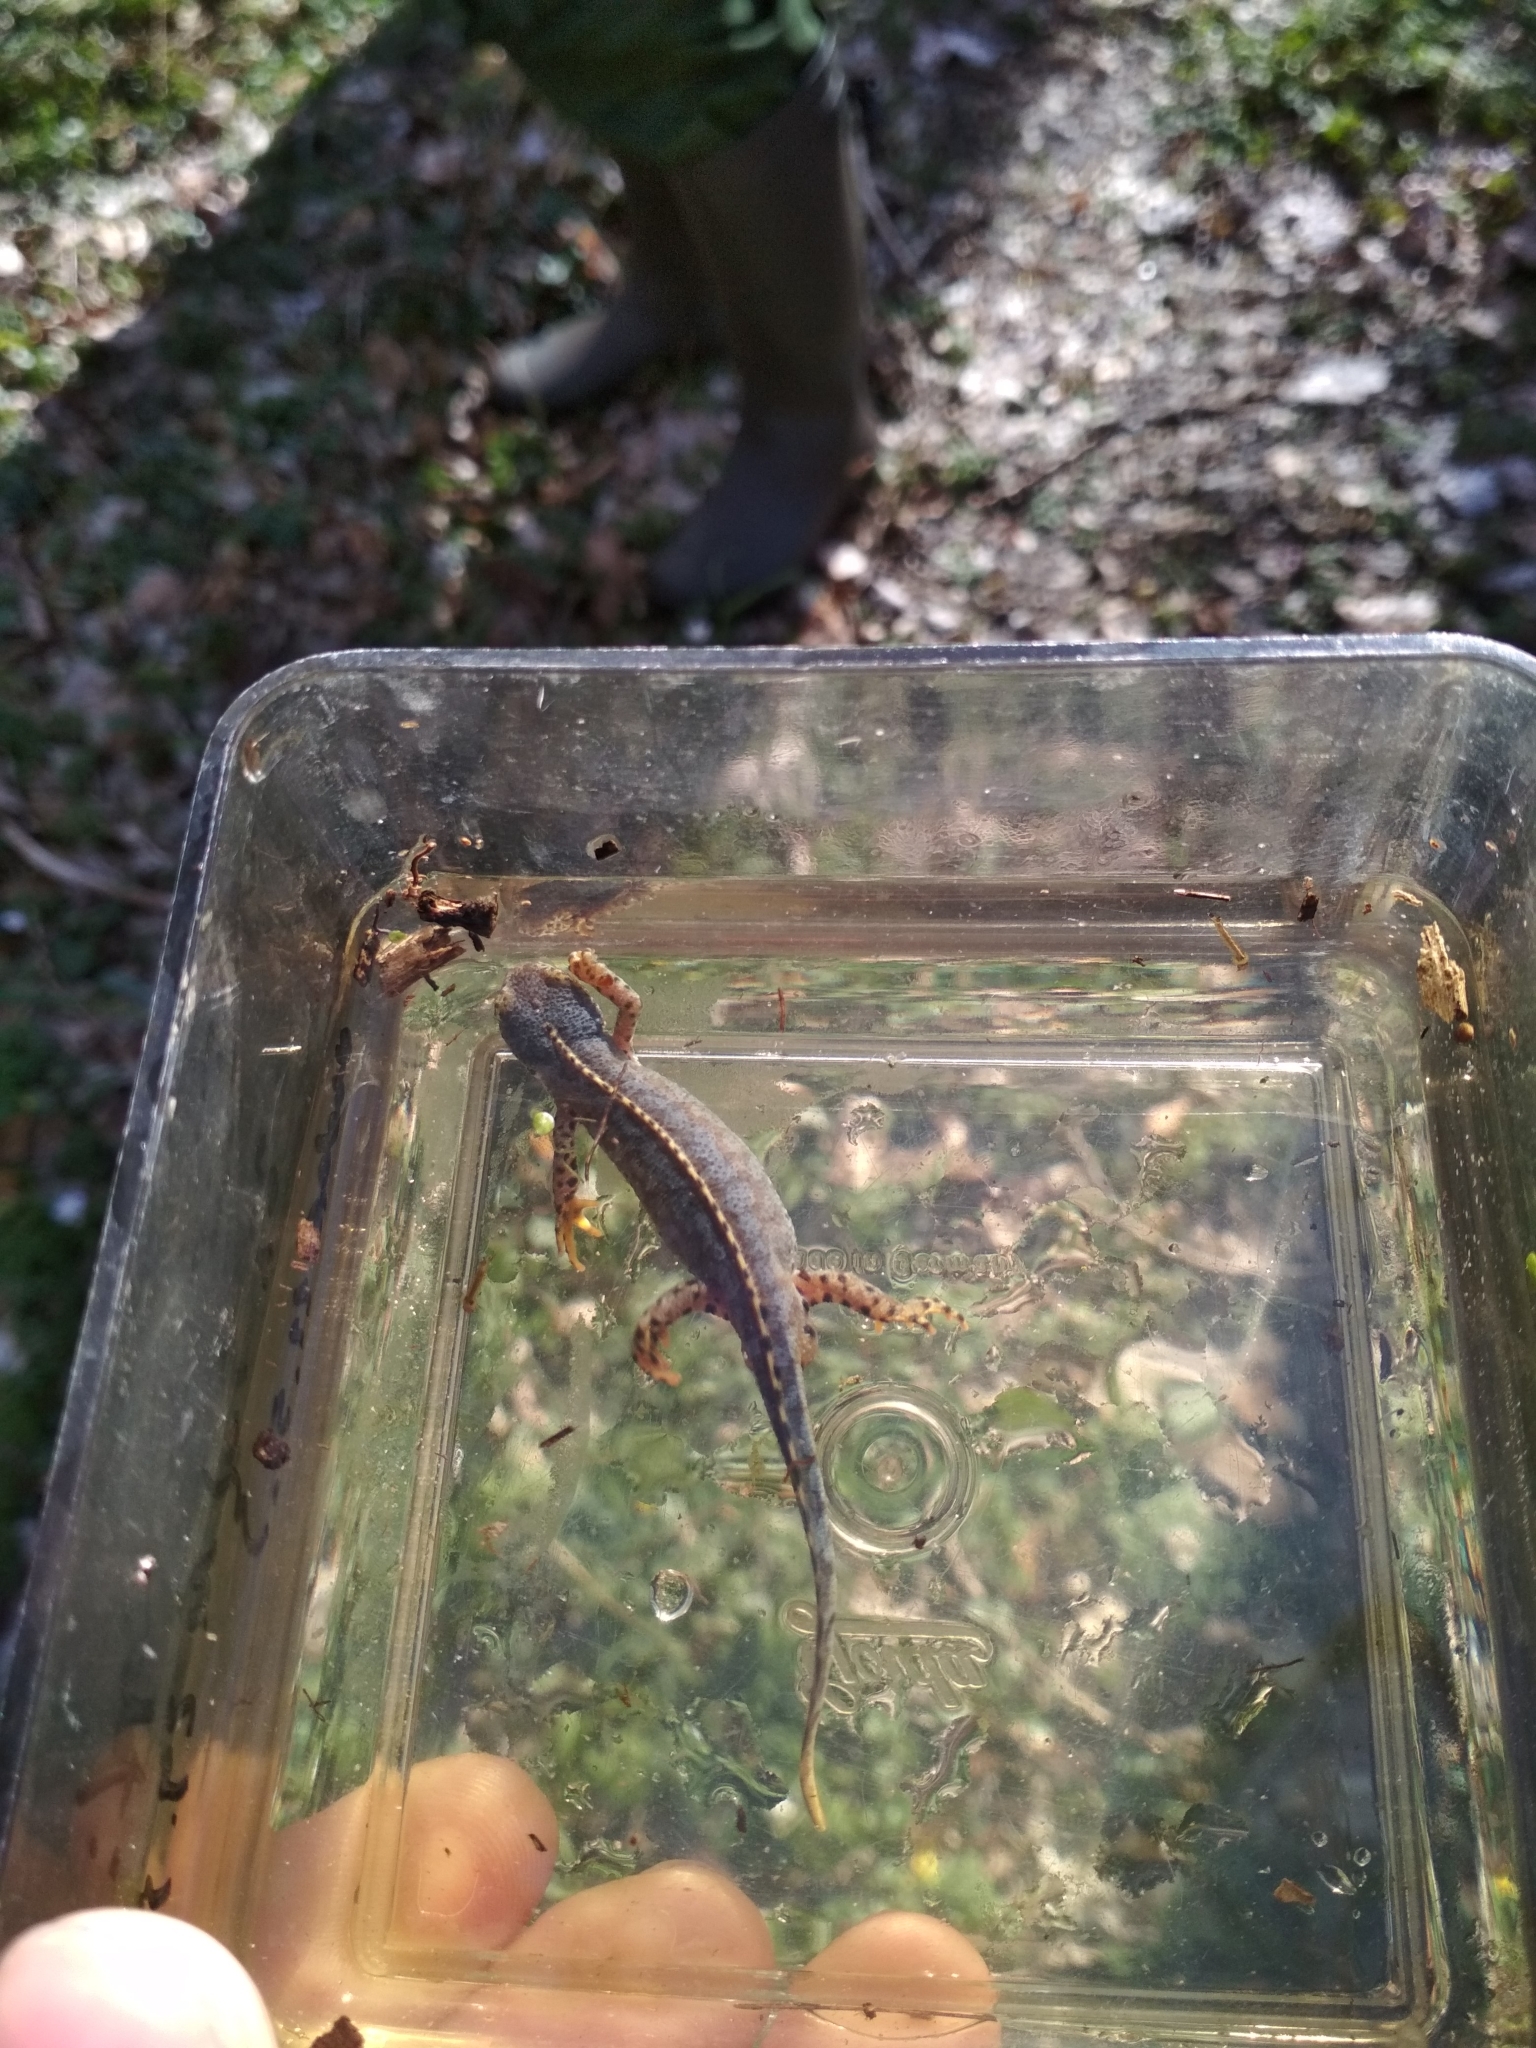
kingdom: Animalia
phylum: Chordata
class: Amphibia
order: Caudata
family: Salamandridae
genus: Ichthyosaura
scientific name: Ichthyosaura alpestris
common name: Alpine newt
